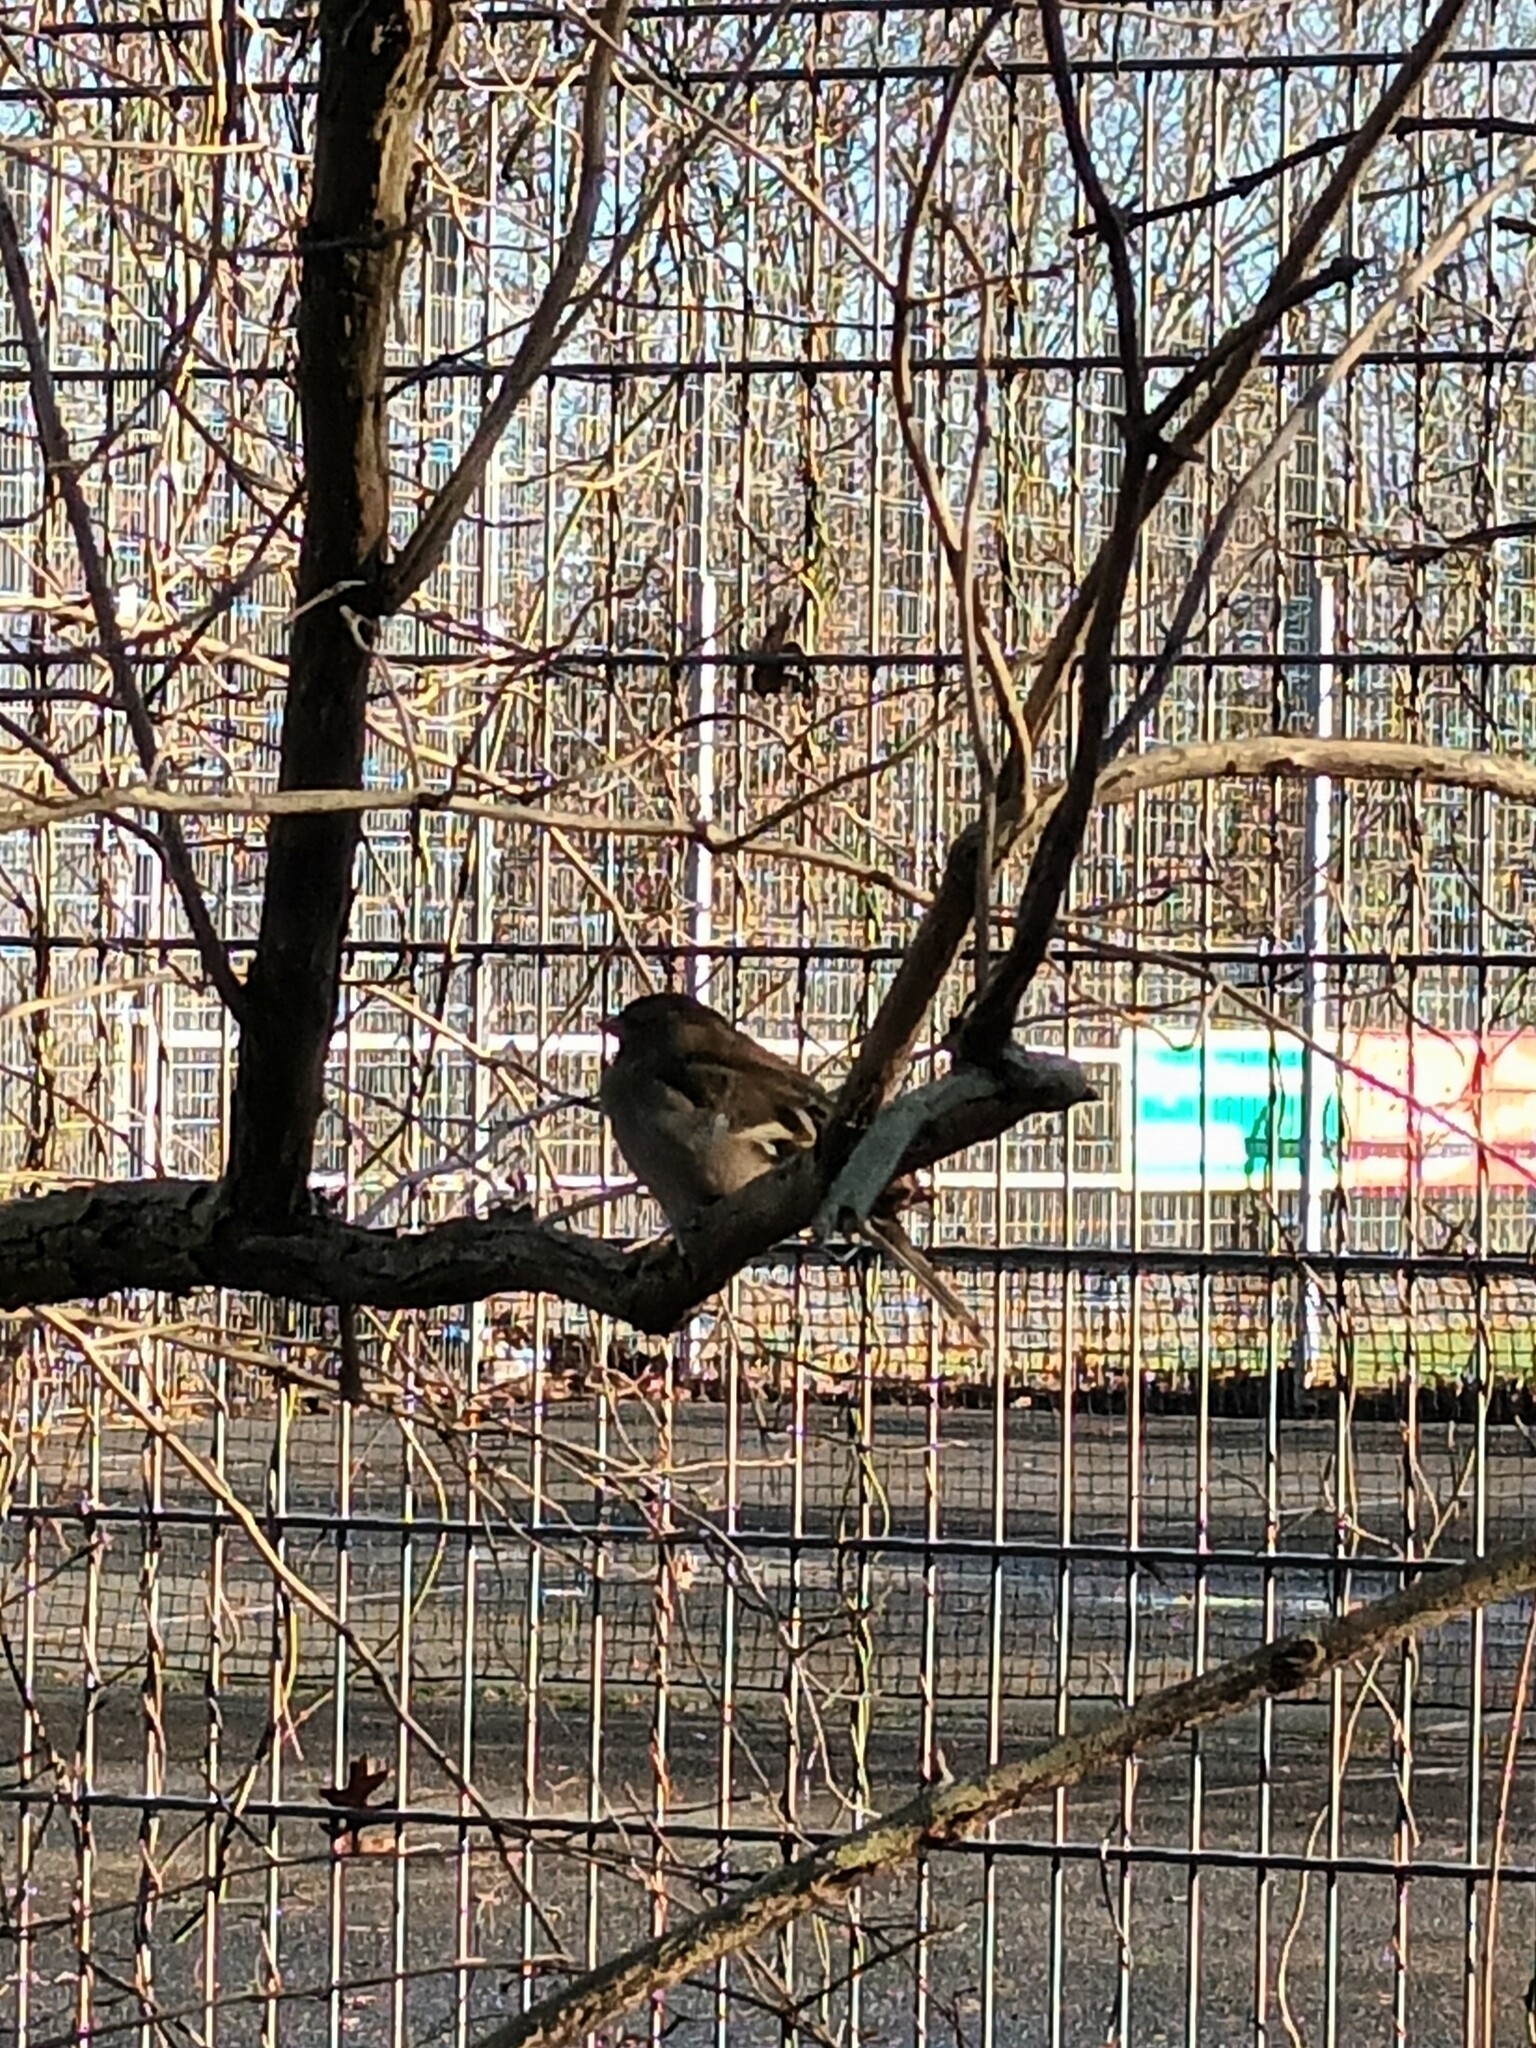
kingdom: Animalia
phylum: Chordata
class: Aves
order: Passeriformes
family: Fringillidae
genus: Fringilla
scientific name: Fringilla coelebs
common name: Common chaffinch
